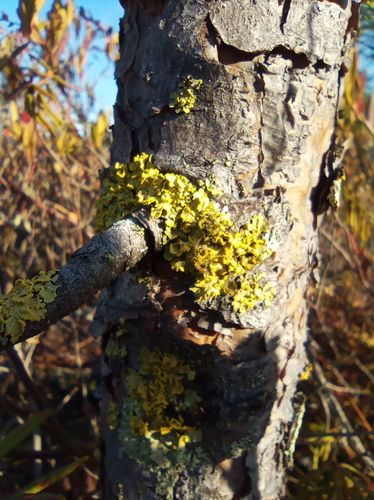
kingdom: Fungi
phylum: Ascomycota
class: Lecanoromycetes
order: Lecanorales
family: Parmeliaceae
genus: Vulpicida
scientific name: Vulpicida pinastri
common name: Powdered sunshine lichen
